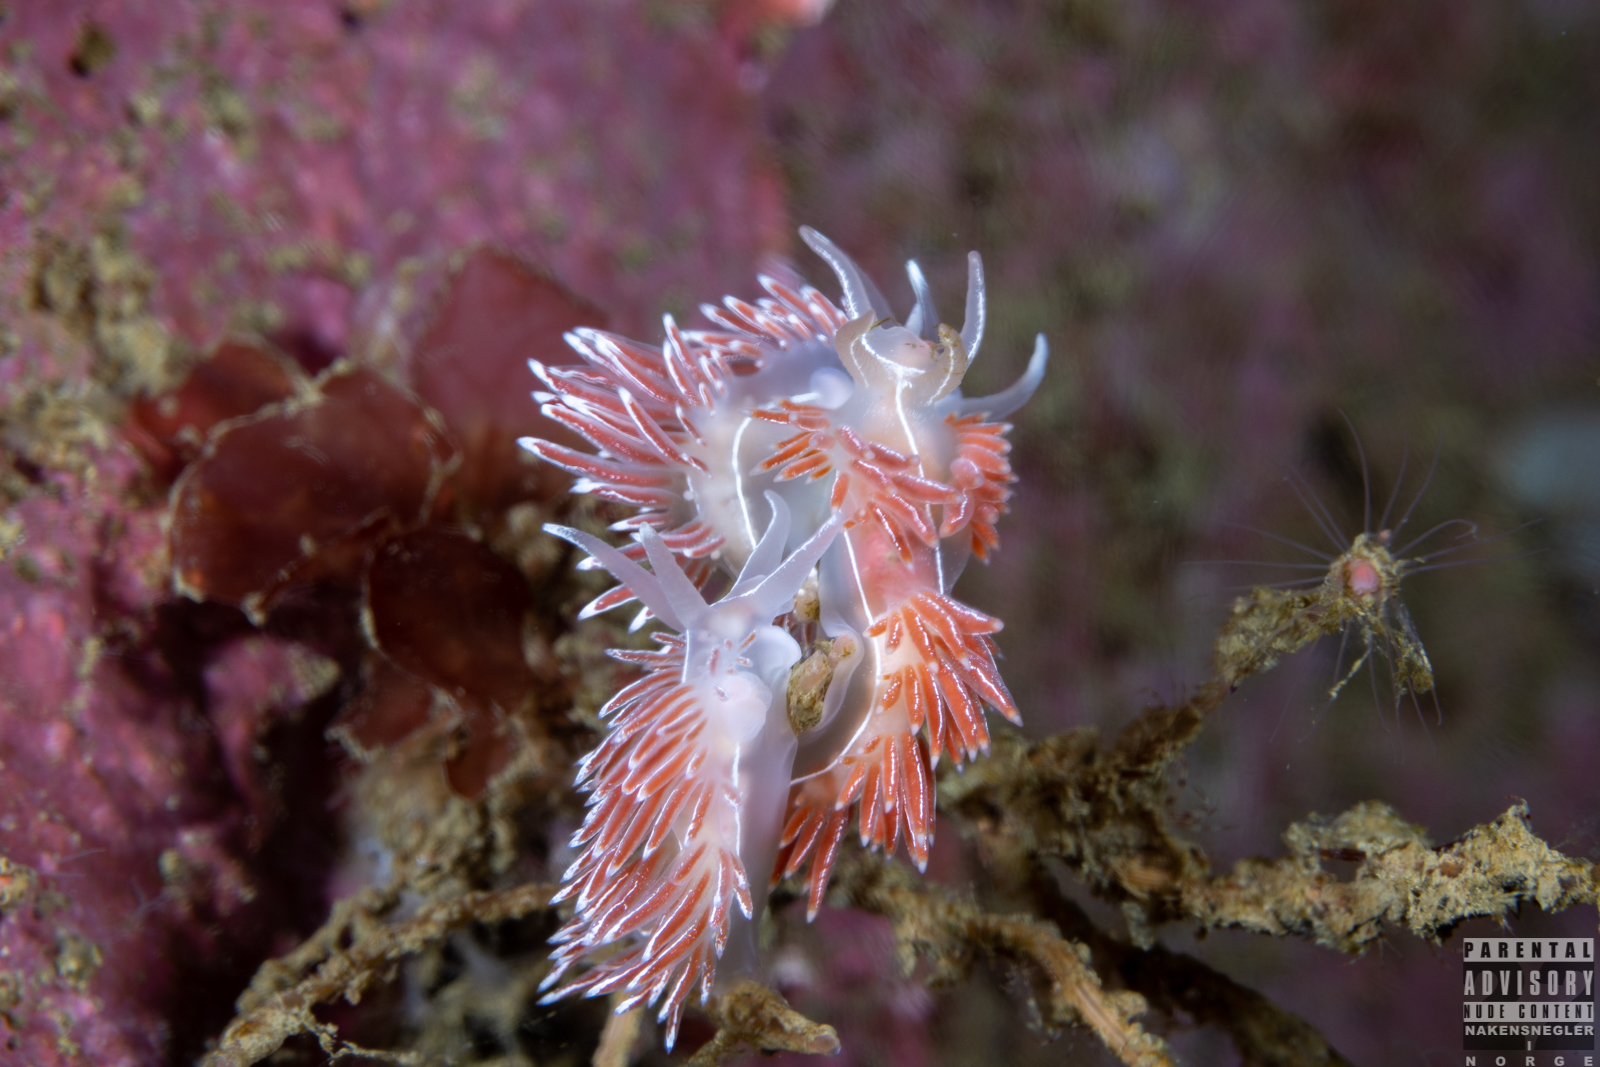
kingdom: Animalia
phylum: Mollusca
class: Gastropoda
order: Nudibranchia
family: Coryphellidae
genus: Coryphella
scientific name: Coryphella chriskaugei
